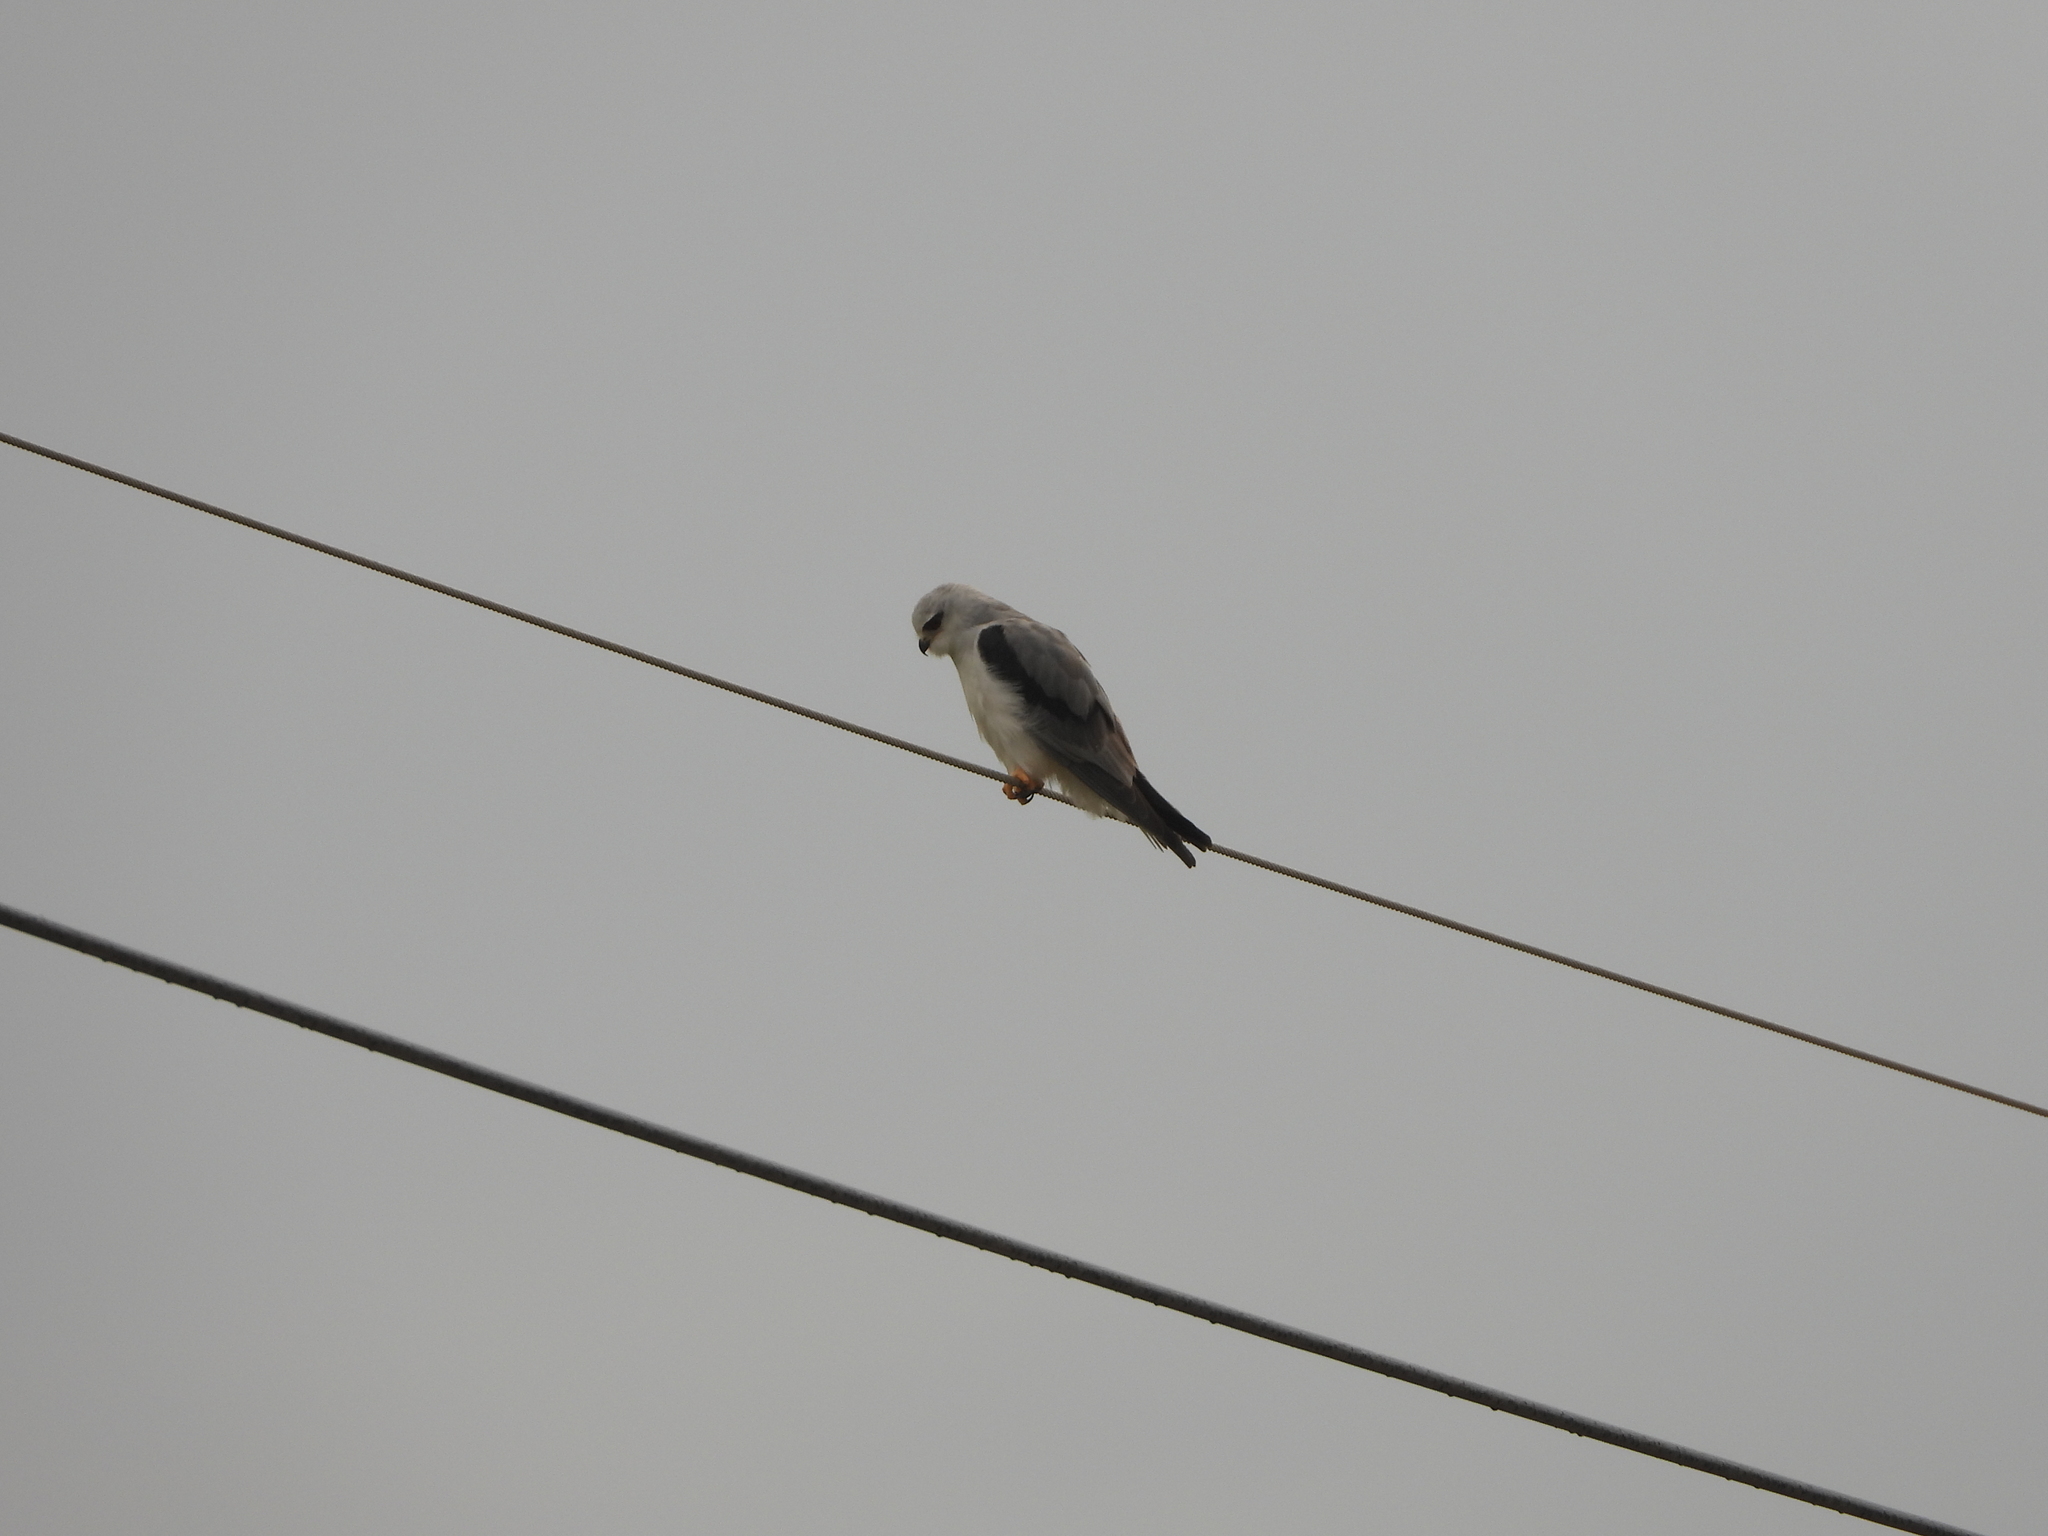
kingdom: Animalia
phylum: Chordata
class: Aves
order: Accipitriformes
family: Accipitridae
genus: Elanus
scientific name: Elanus caeruleus
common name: Black-winged kite
